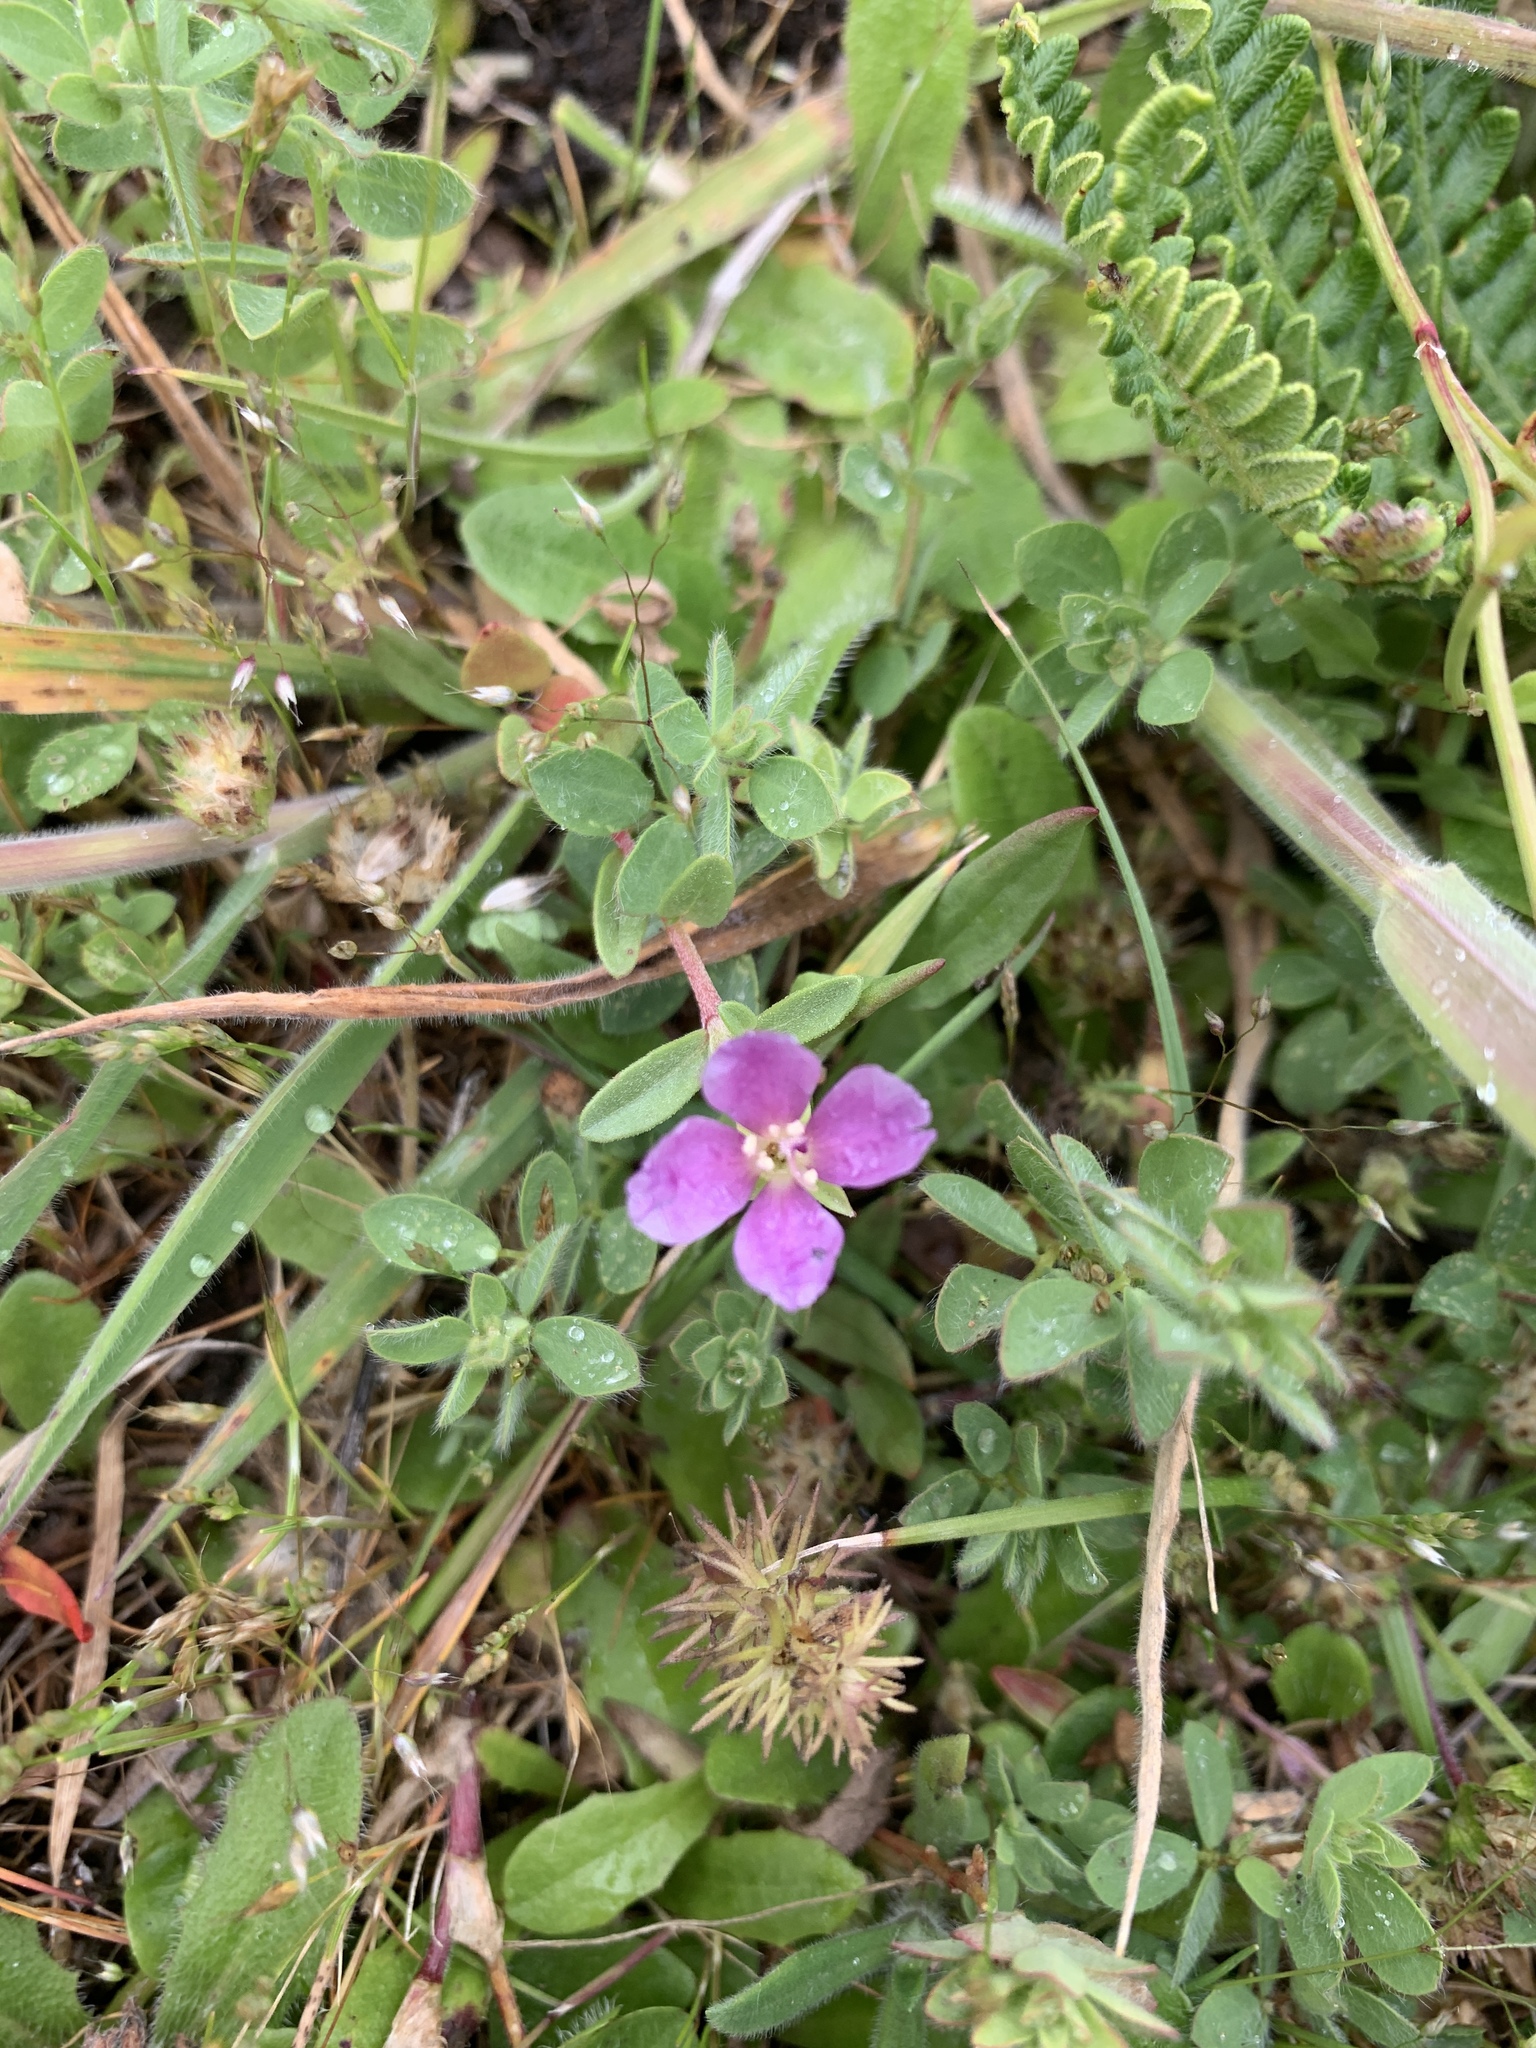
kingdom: Plantae
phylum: Tracheophyta
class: Magnoliopsida
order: Myrtales
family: Onagraceae
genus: Clarkia
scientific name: Clarkia davyi
